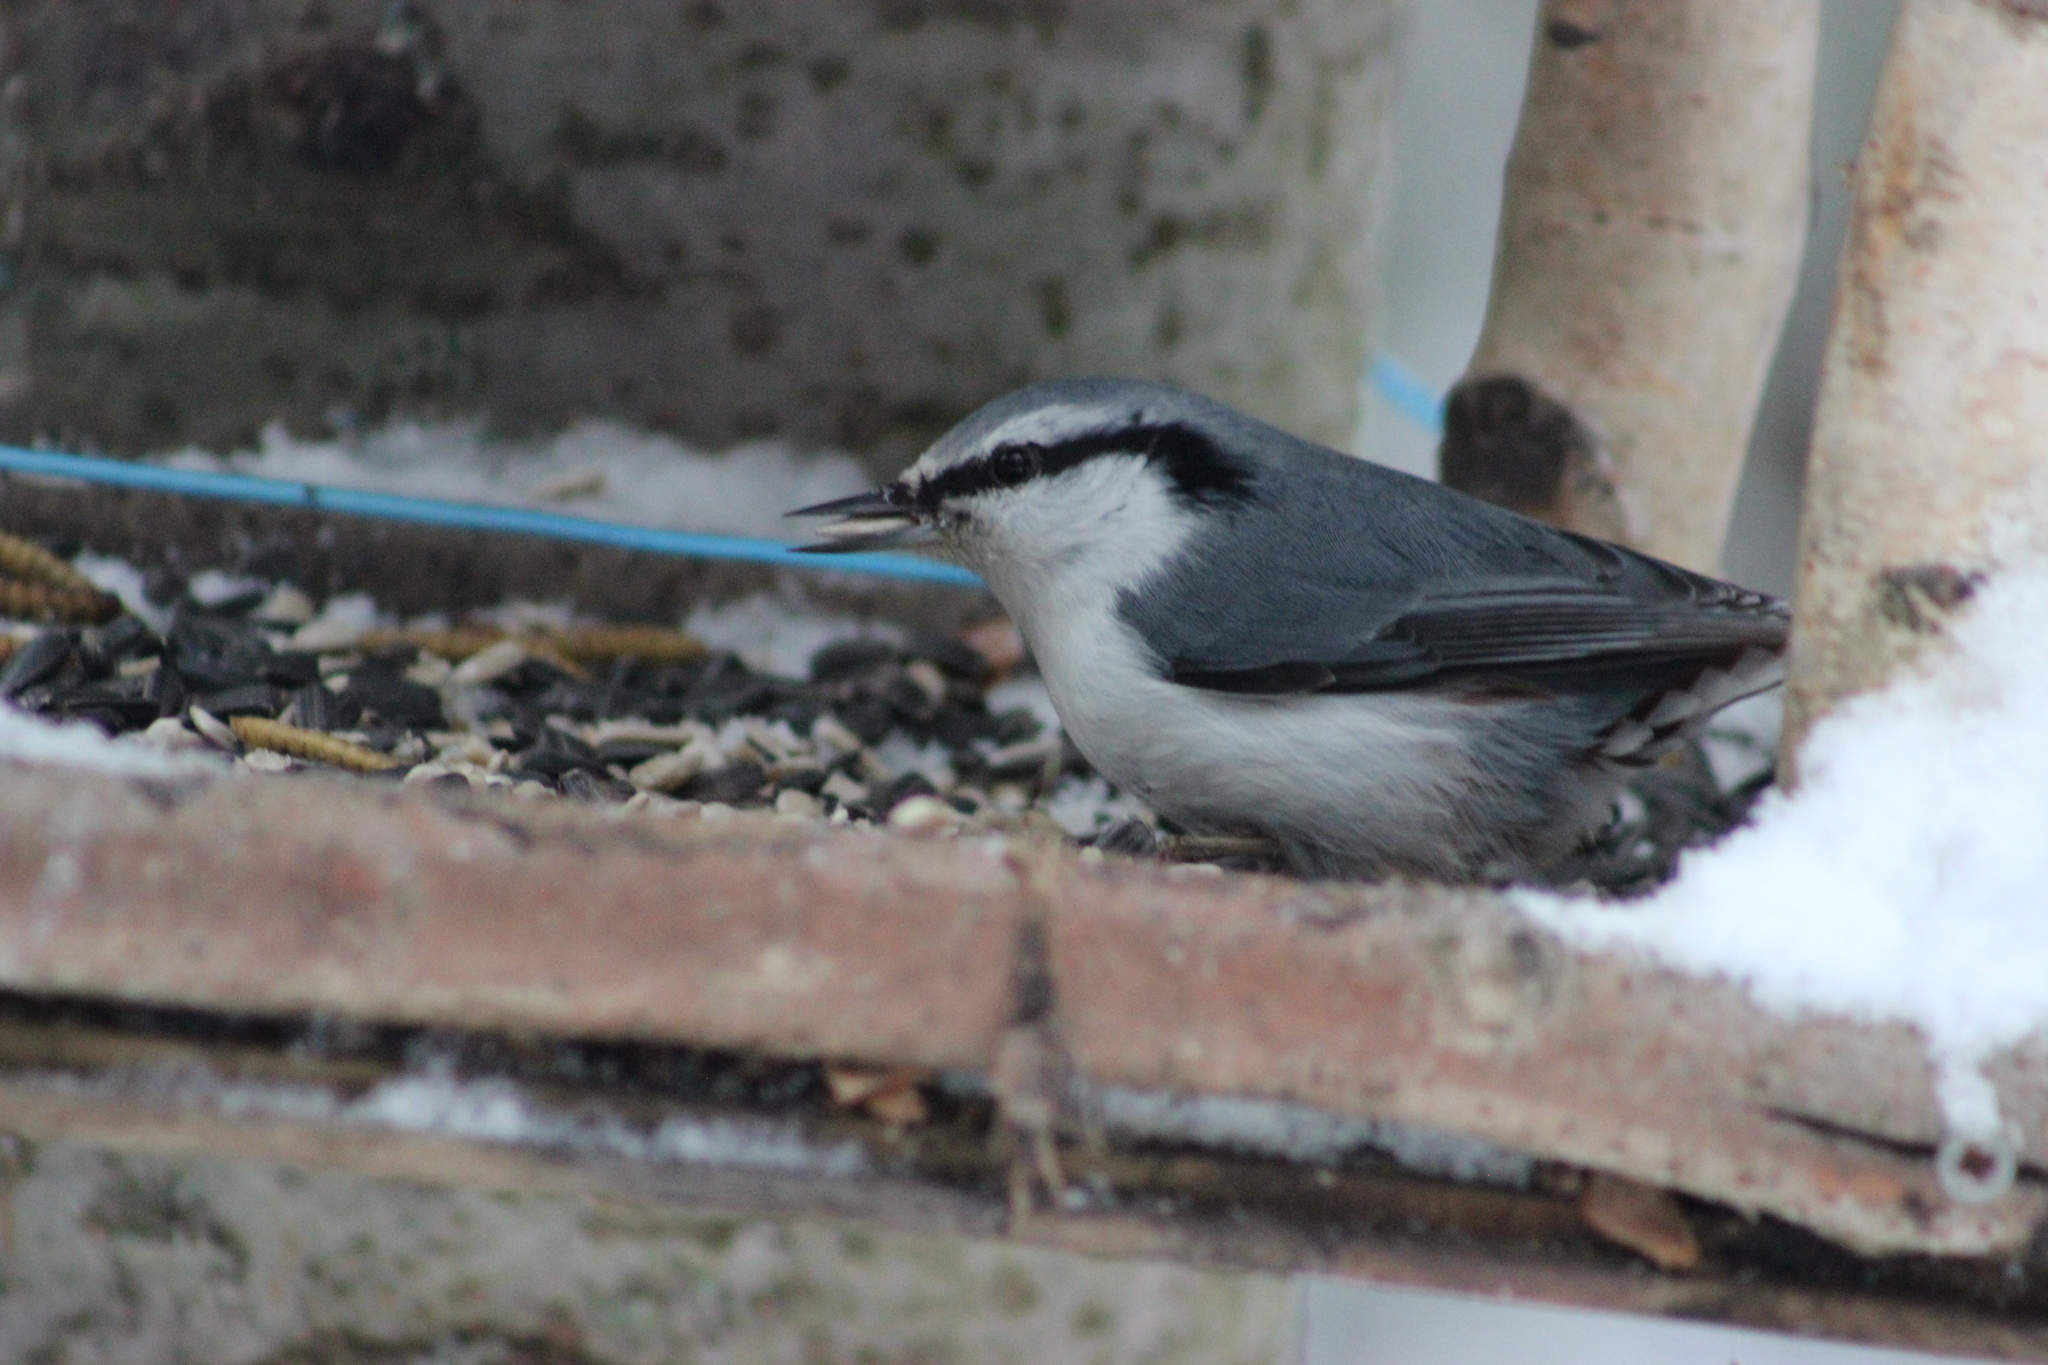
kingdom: Animalia
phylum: Chordata
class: Aves
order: Passeriformes
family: Sittidae
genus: Sitta
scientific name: Sitta europaea
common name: Eurasian nuthatch
